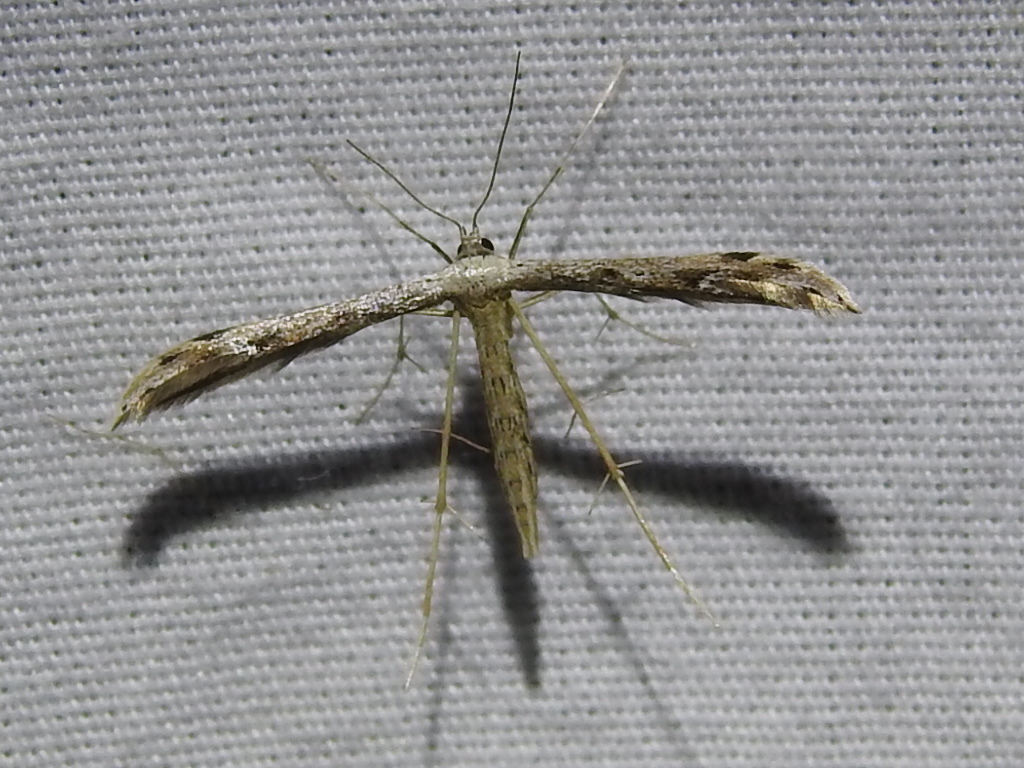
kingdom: Animalia
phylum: Arthropoda
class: Insecta
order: Lepidoptera
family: Pterophoridae
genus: Pselnophorus
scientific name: Pselnophorus belfragei
